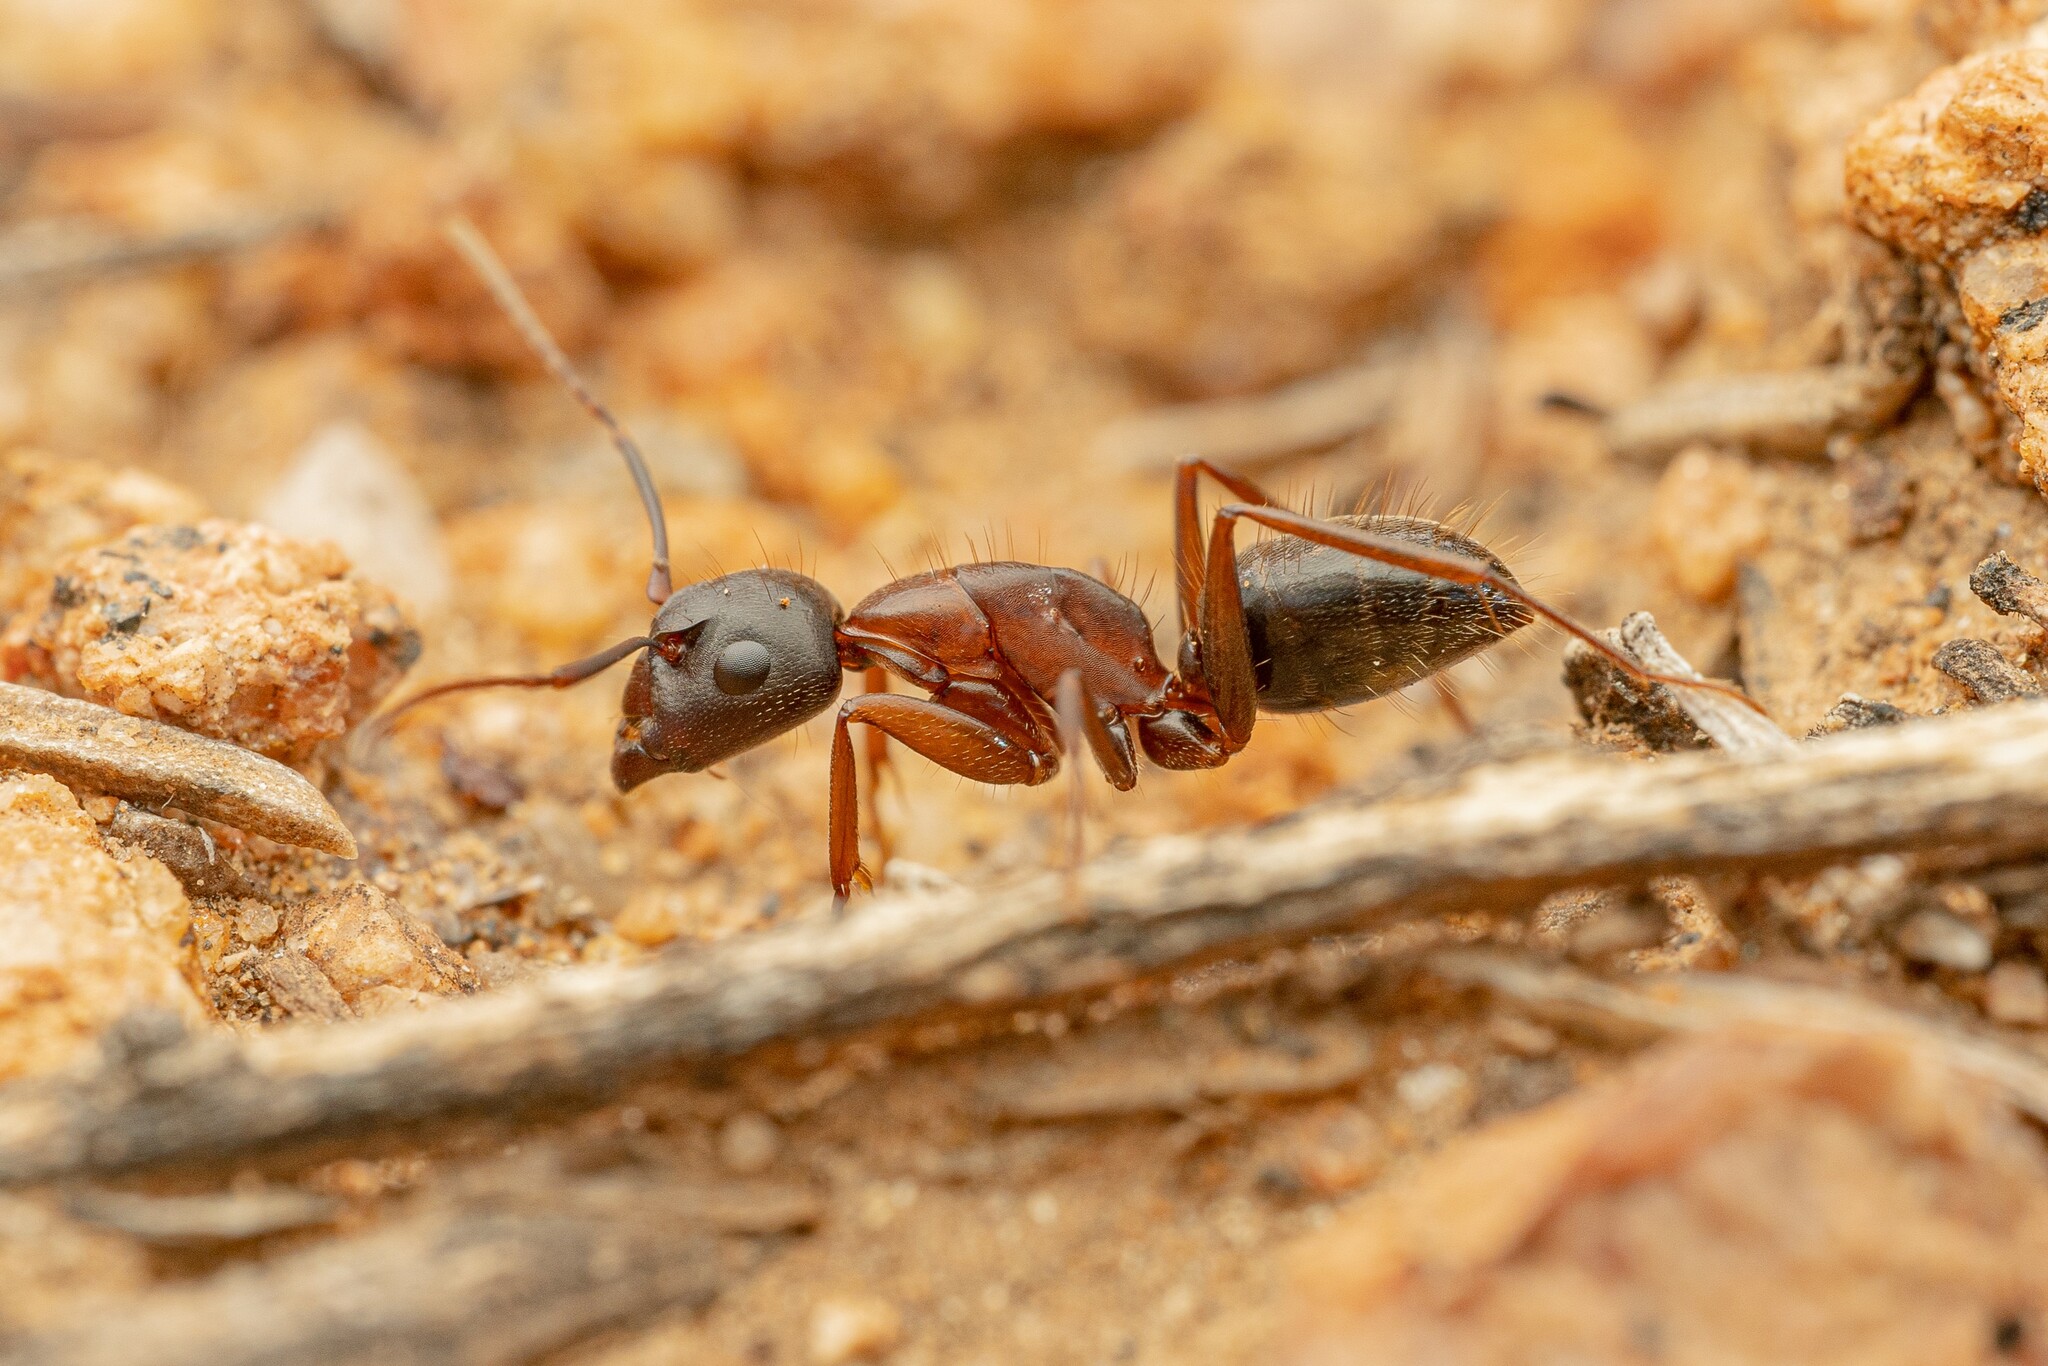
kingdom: Animalia
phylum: Arthropoda
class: Insecta
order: Hymenoptera
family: Formicidae
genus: Camponotus
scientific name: Camponotus dumetorum
